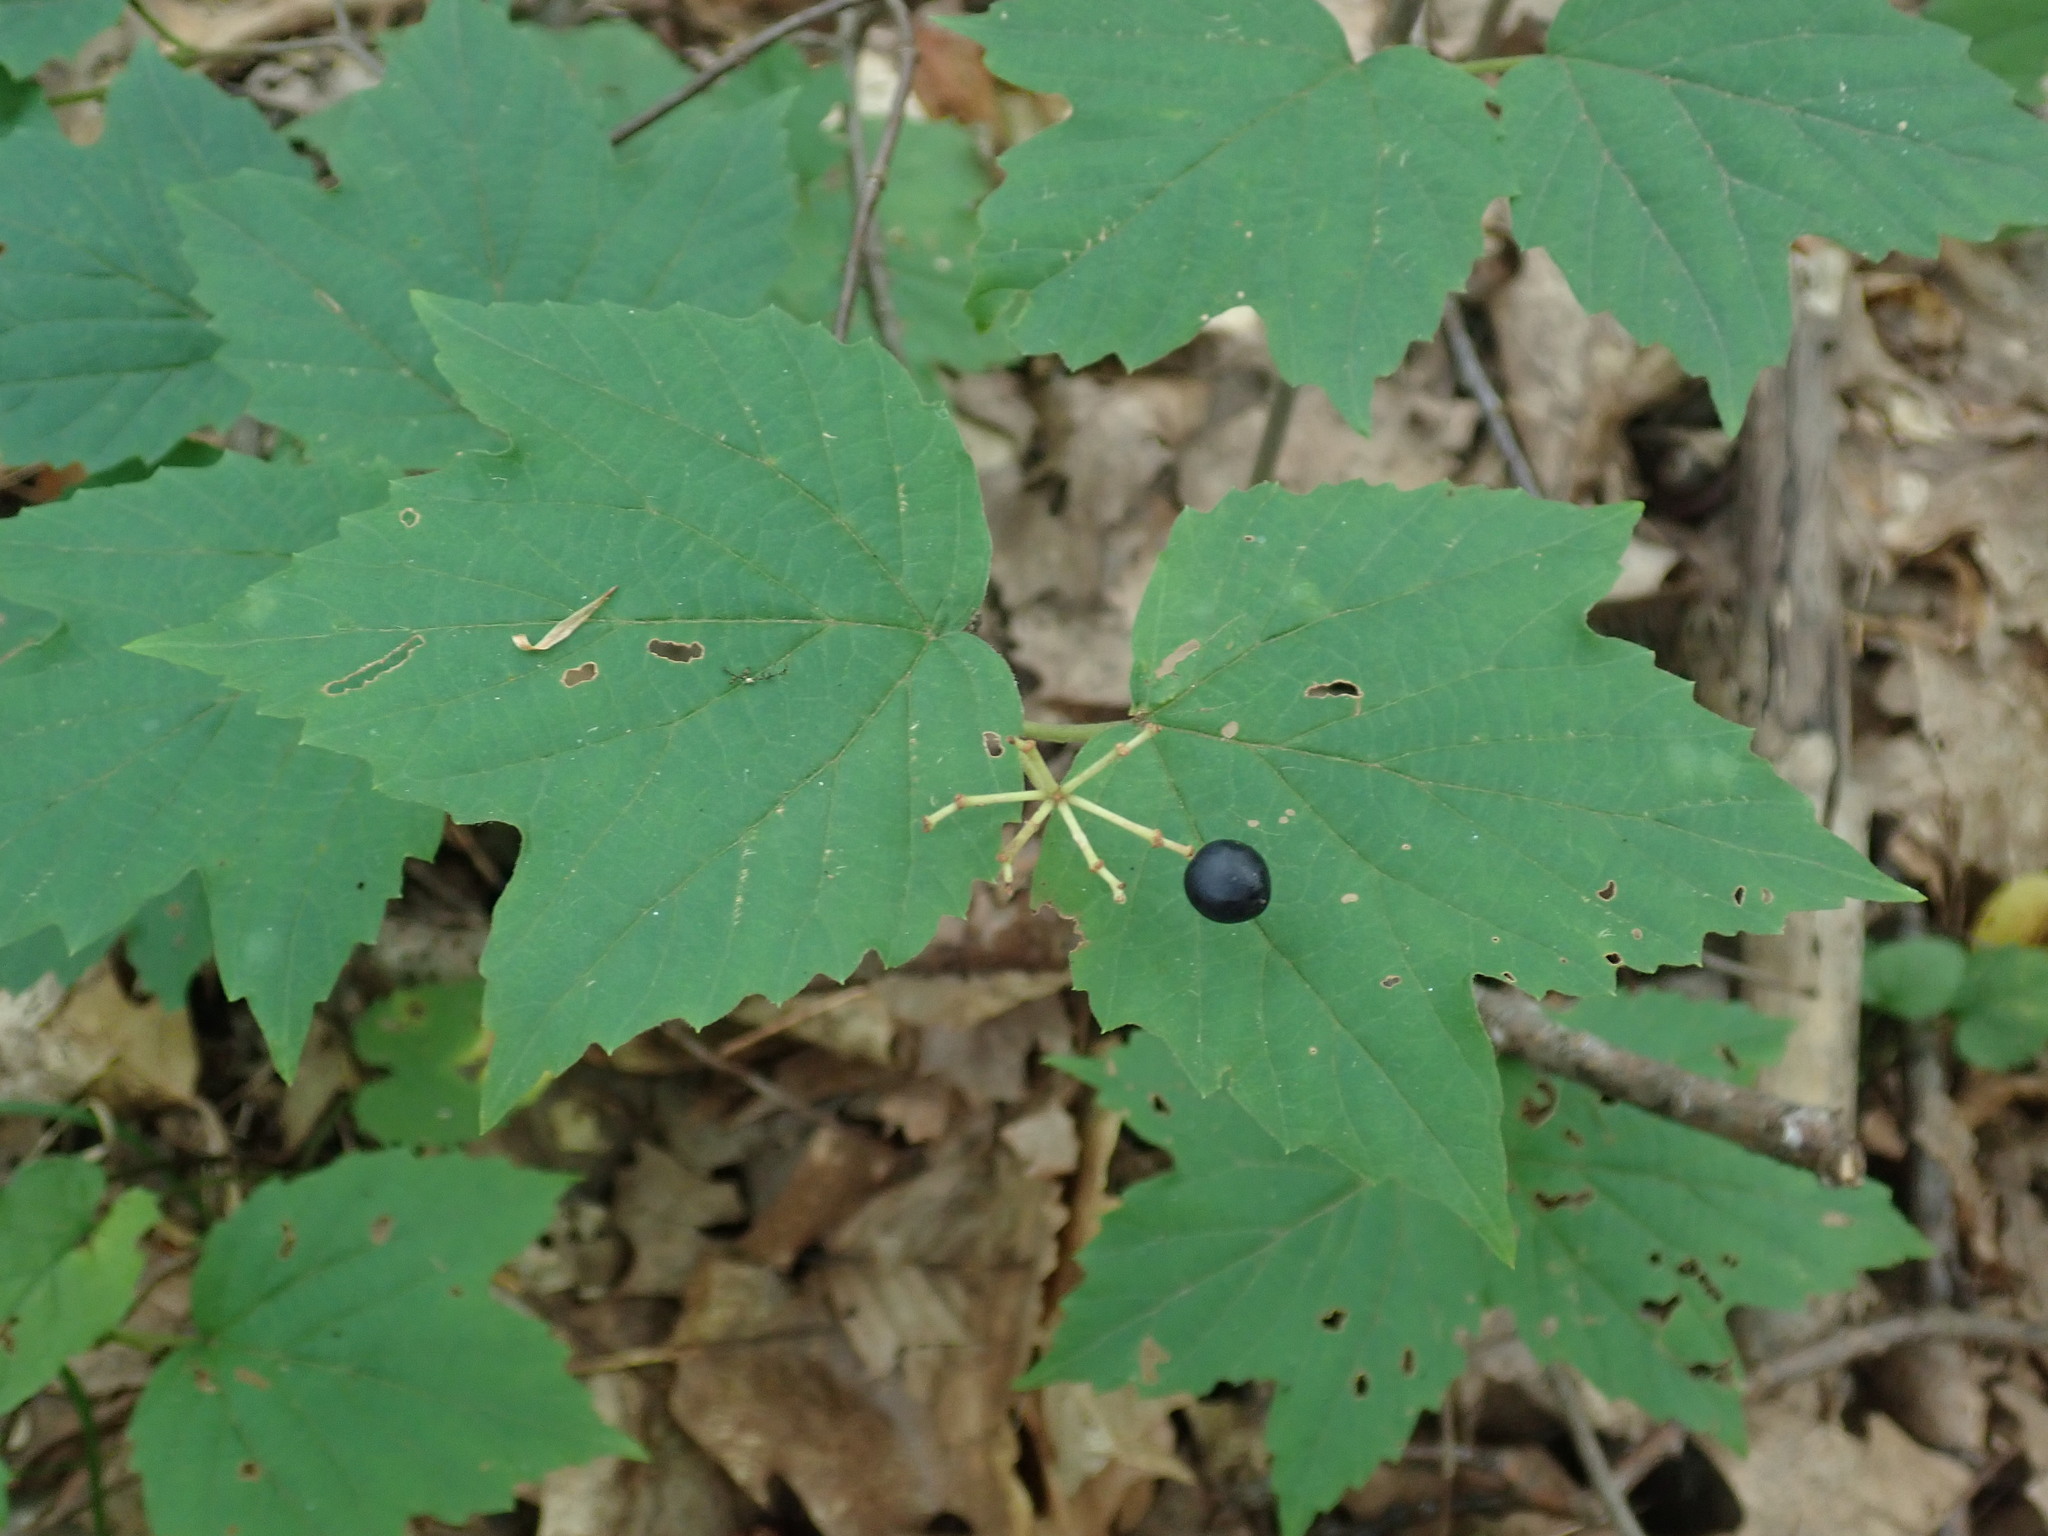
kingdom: Plantae
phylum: Tracheophyta
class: Magnoliopsida
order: Dipsacales
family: Viburnaceae
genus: Viburnum
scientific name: Viburnum acerifolium
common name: Dockmackie
